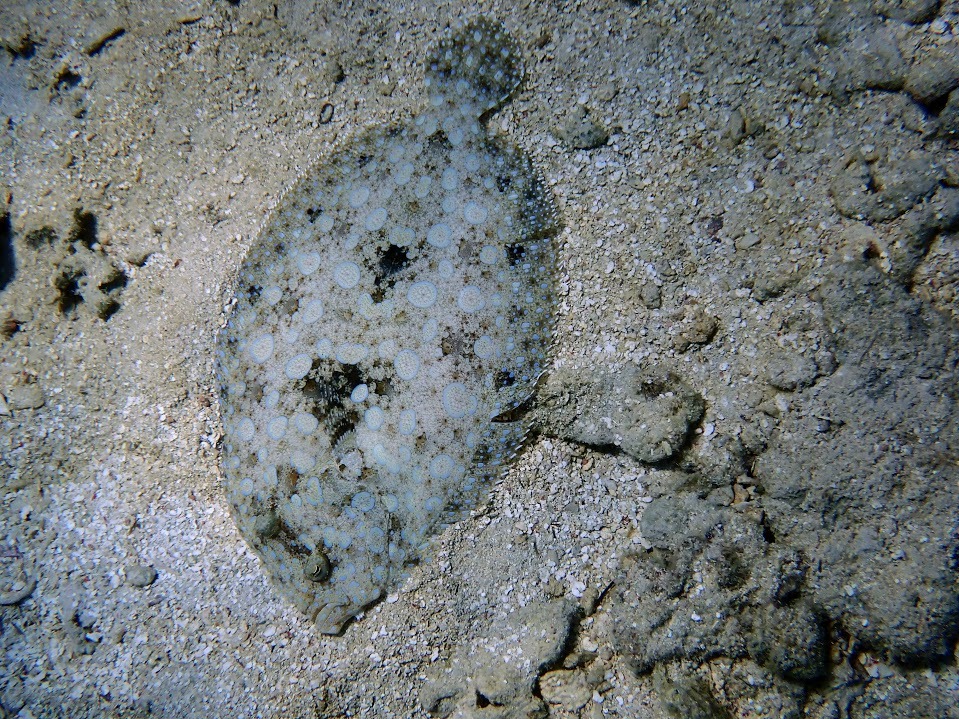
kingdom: Animalia
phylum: Chordata
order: Pleuronectiformes
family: Bothidae
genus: Bothus
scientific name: Bothus lunatus
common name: Peacock flounder
